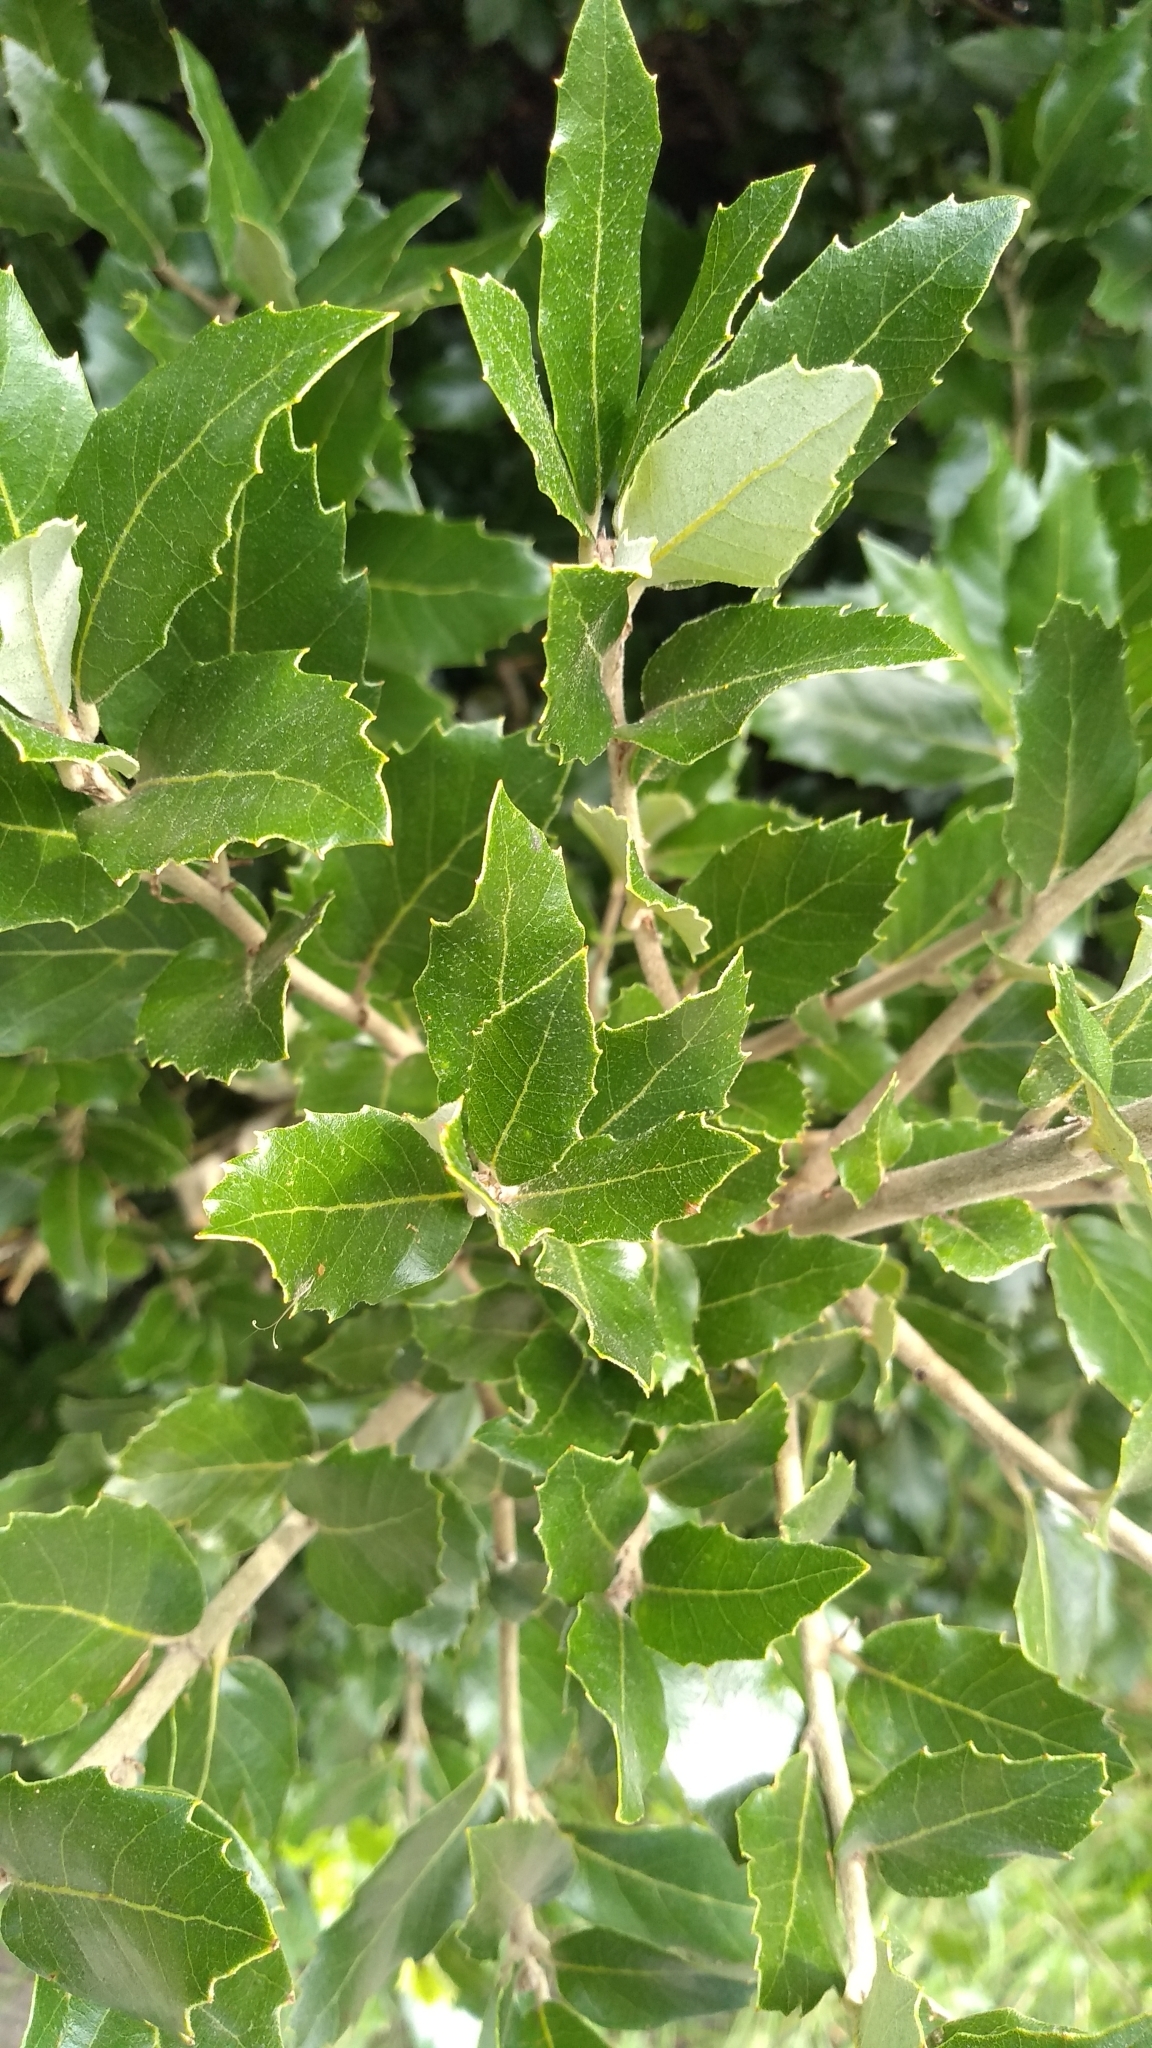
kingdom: Plantae
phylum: Tracheophyta
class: Magnoliopsida
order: Fagales
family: Fagaceae
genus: Quercus
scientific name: Quercus ilex
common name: Evergreen oak
